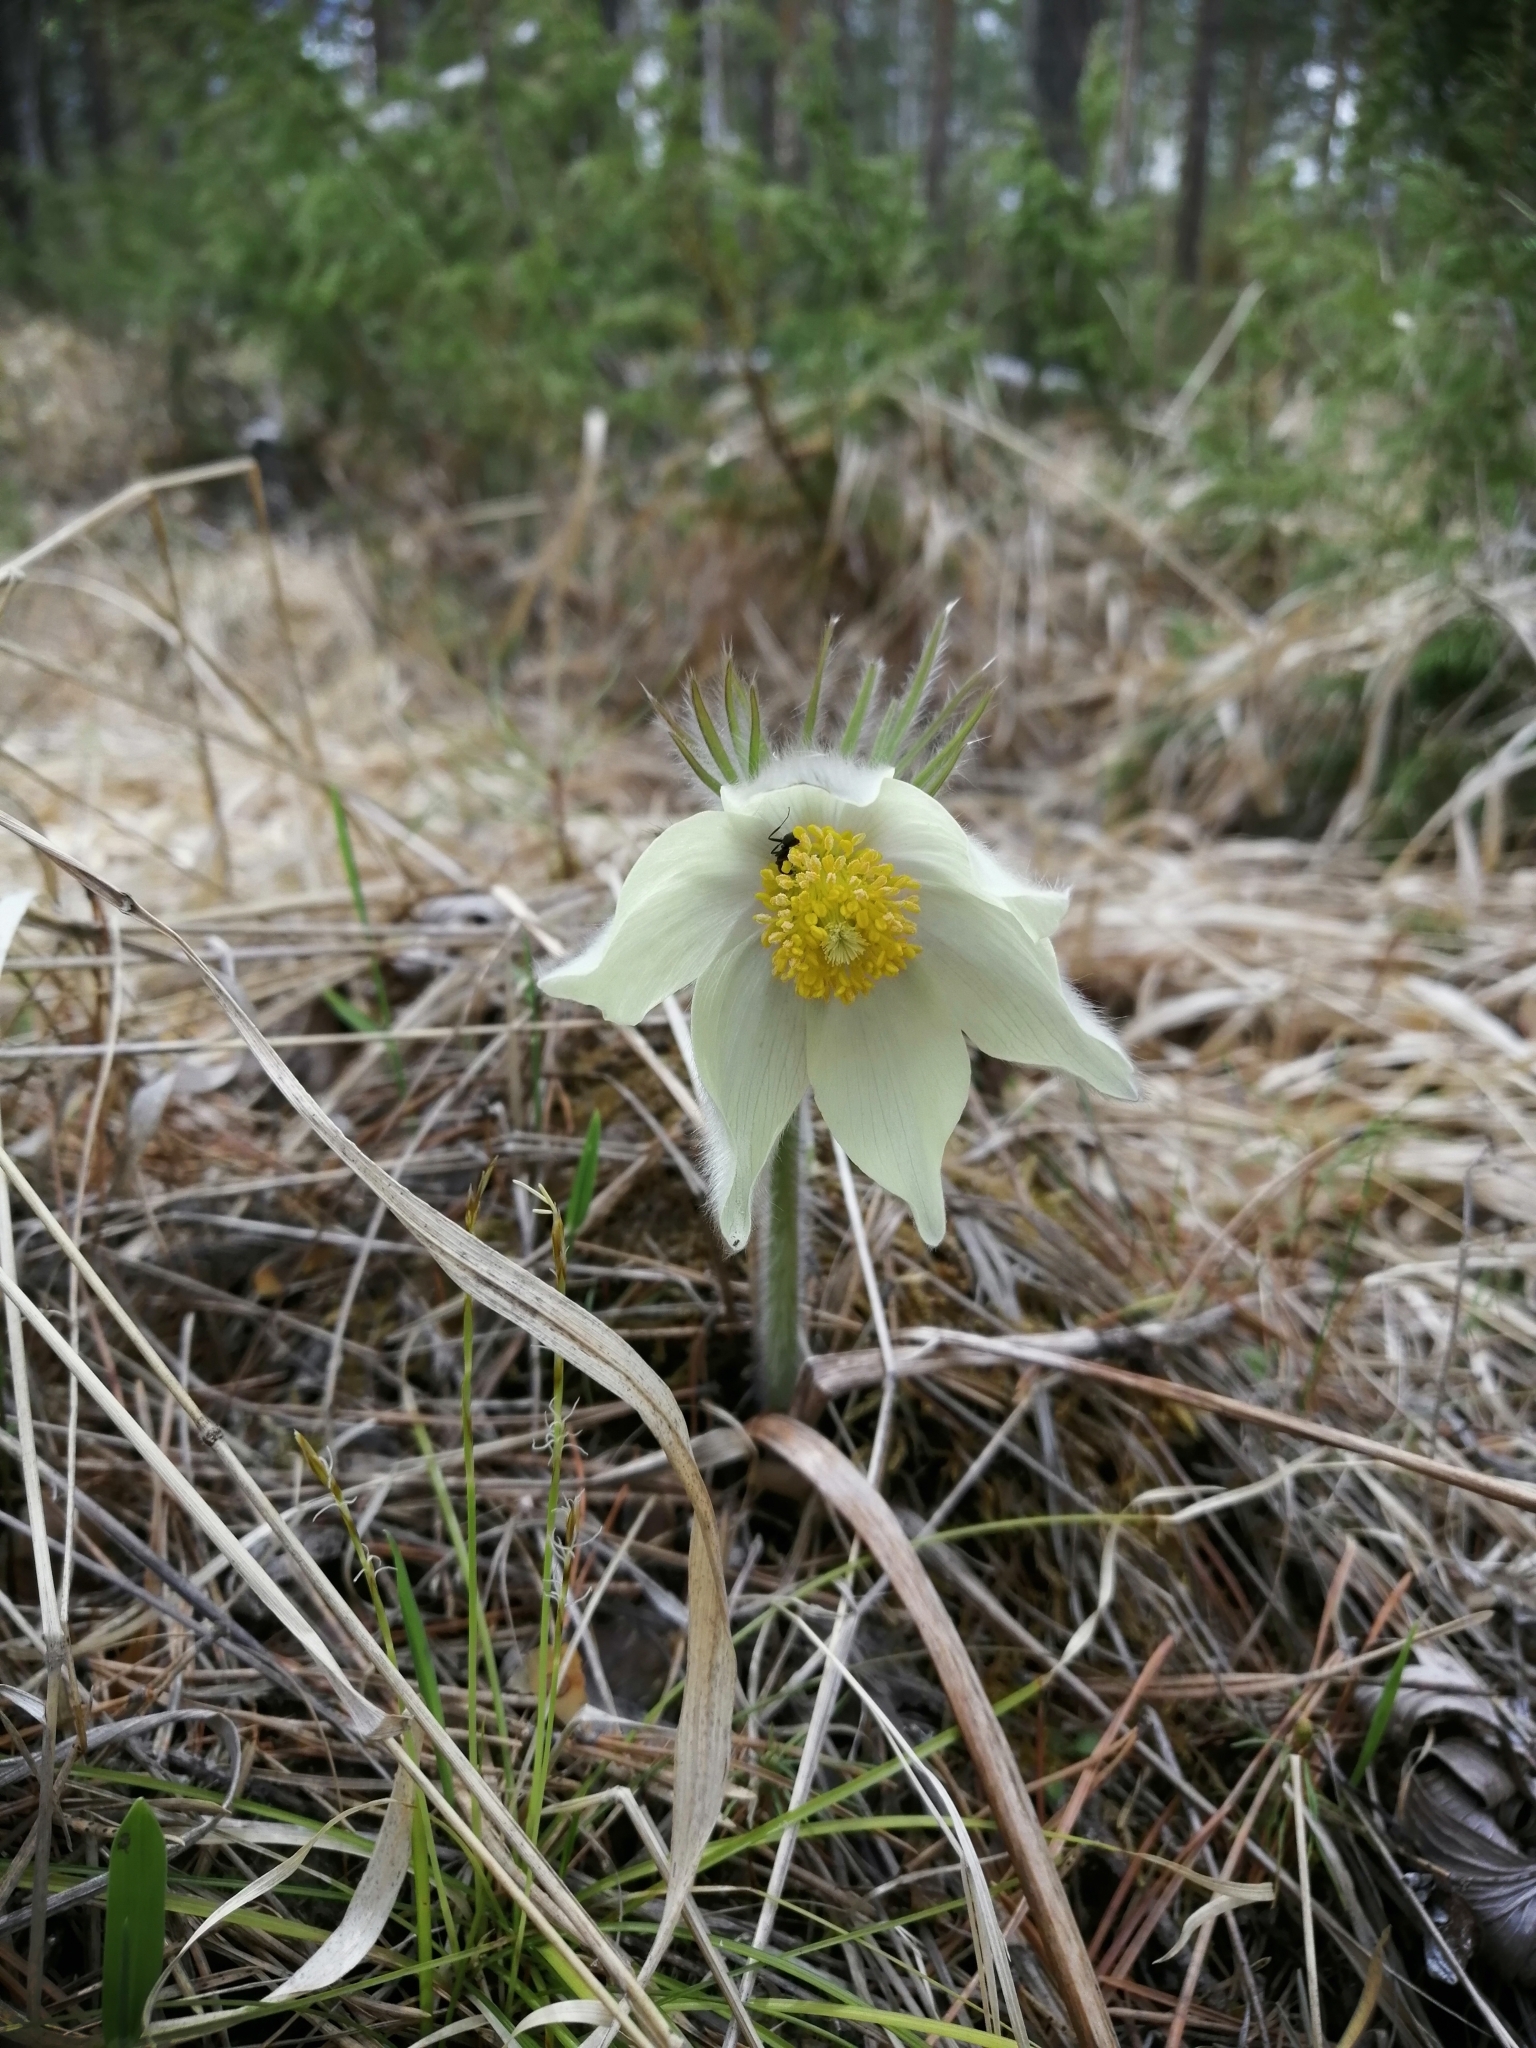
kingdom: Plantae
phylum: Tracheophyta
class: Magnoliopsida
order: Ranunculales
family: Ranunculaceae
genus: Pulsatilla
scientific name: Pulsatilla patens
